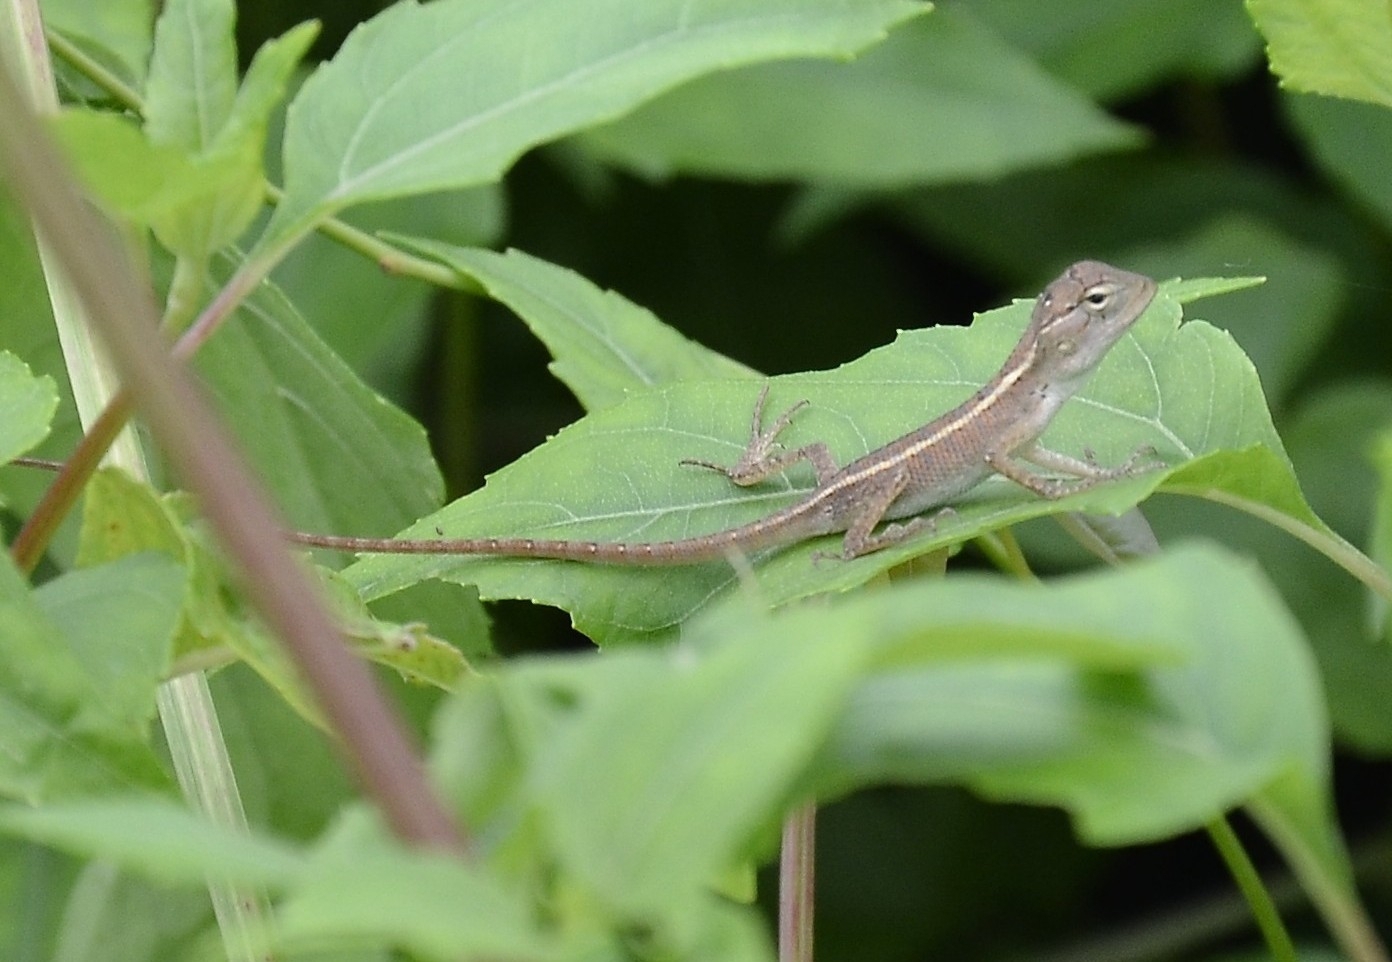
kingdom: Animalia
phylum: Chordata
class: Squamata
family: Agamidae
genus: Calotes
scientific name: Calotes versicolor
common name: Oriental garden lizard
